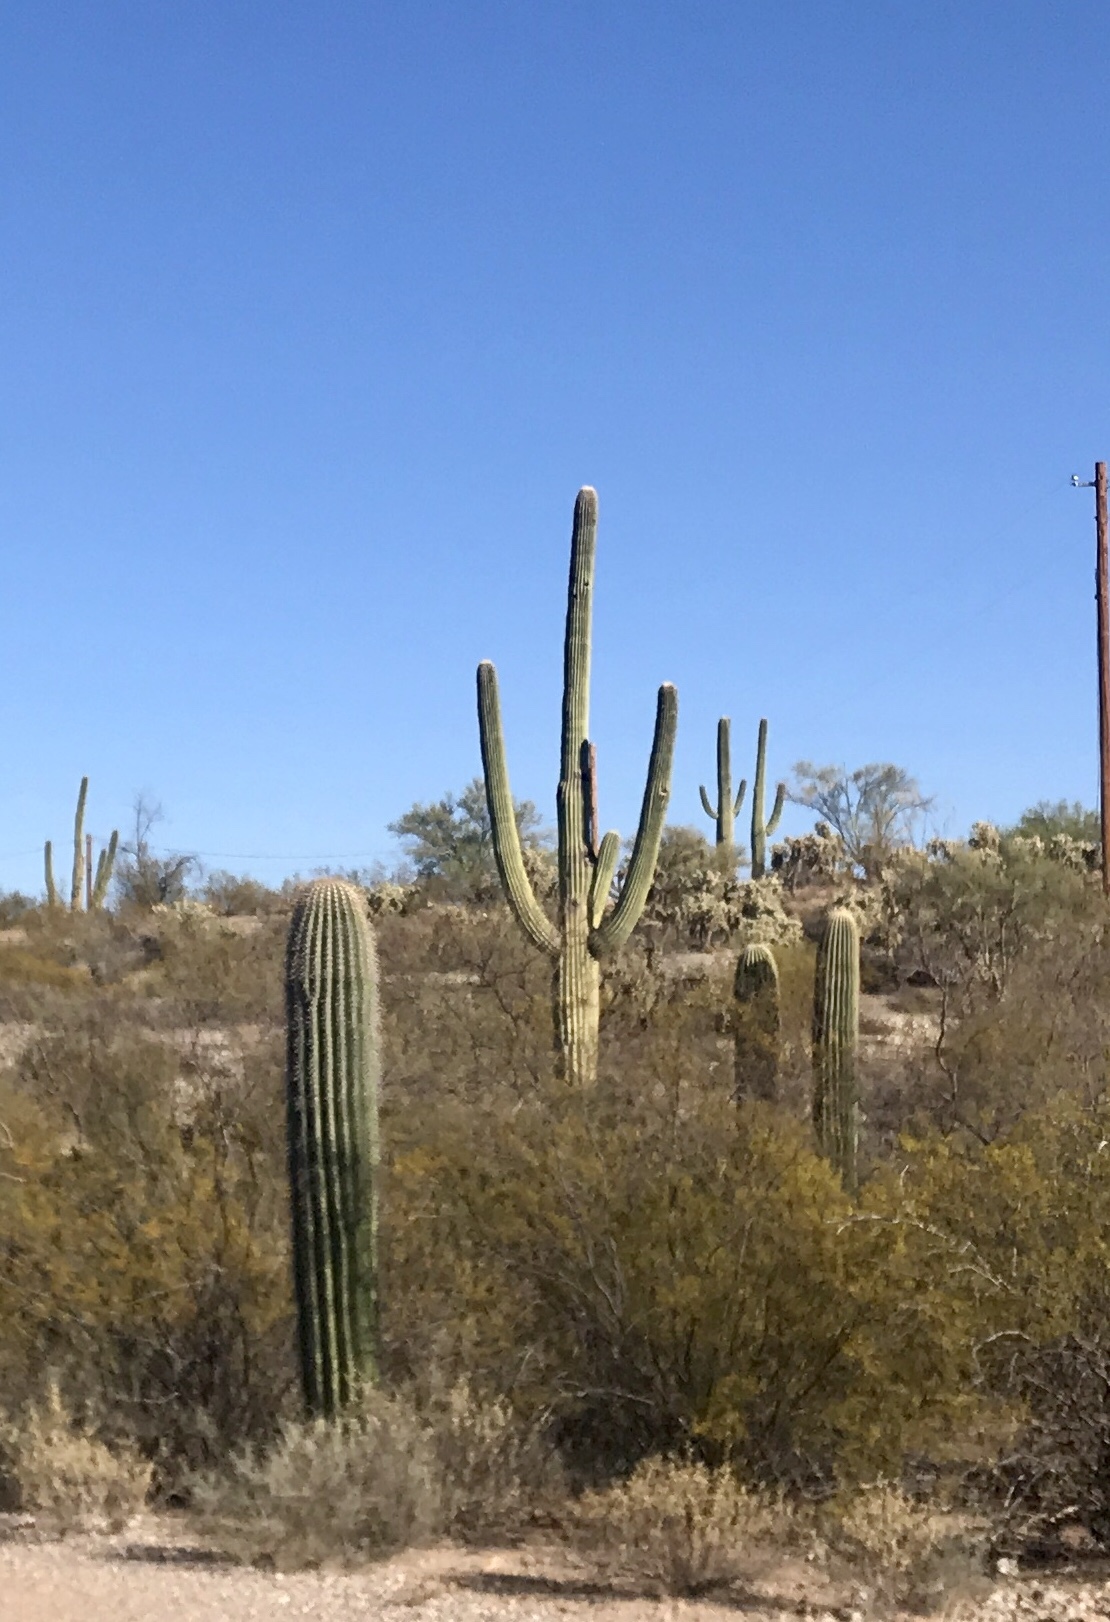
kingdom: Plantae
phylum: Tracheophyta
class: Magnoliopsida
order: Caryophyllales
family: Cactaceae
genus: Carnegiea
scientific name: Carnegiea gigantea
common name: Saguaro
